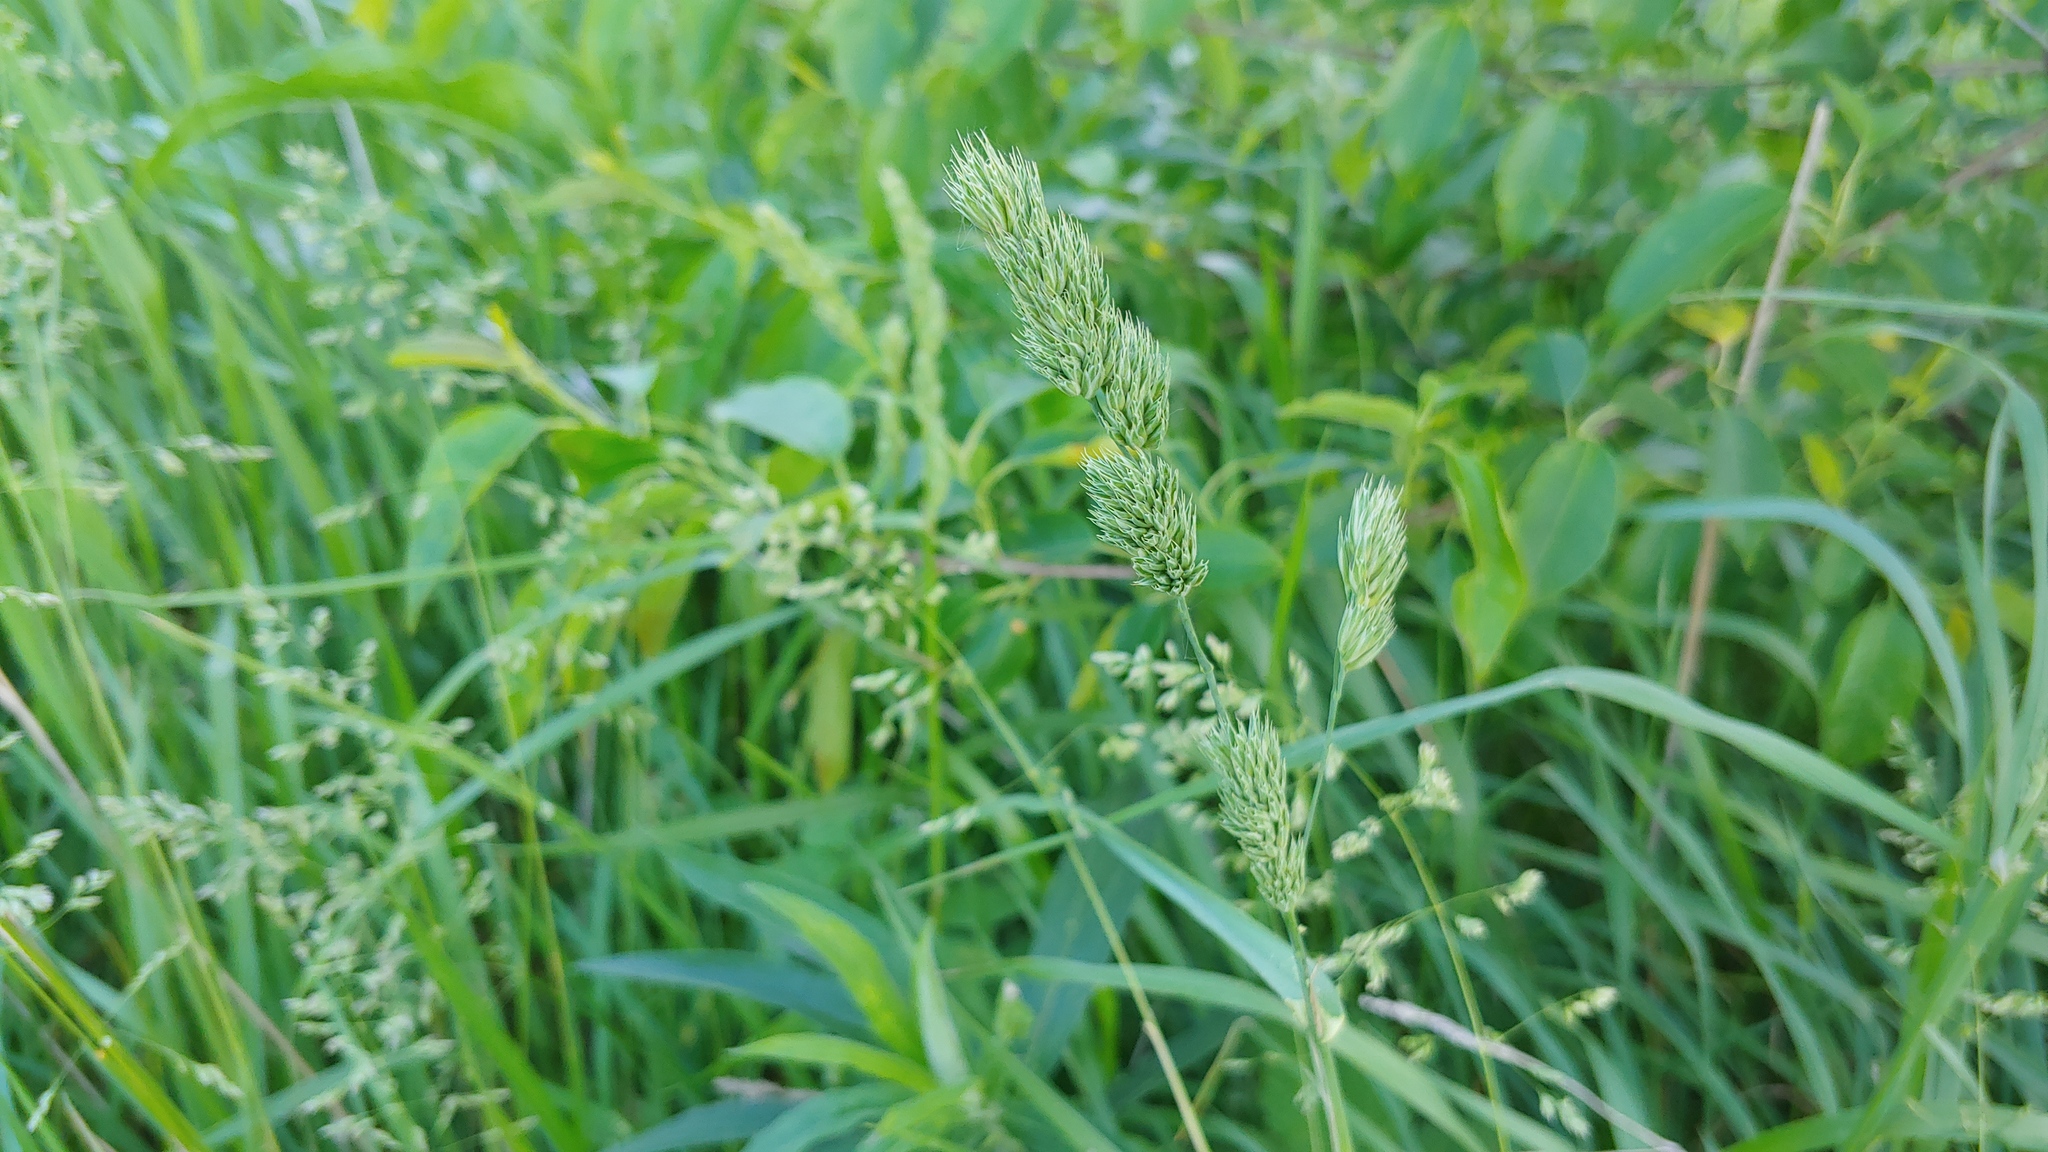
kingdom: Plantae
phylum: Tracheophyta
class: Liliopsida
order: Poales
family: Poaceae
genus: Dactylis
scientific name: Dactylis glomerata
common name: Orchardgrass
